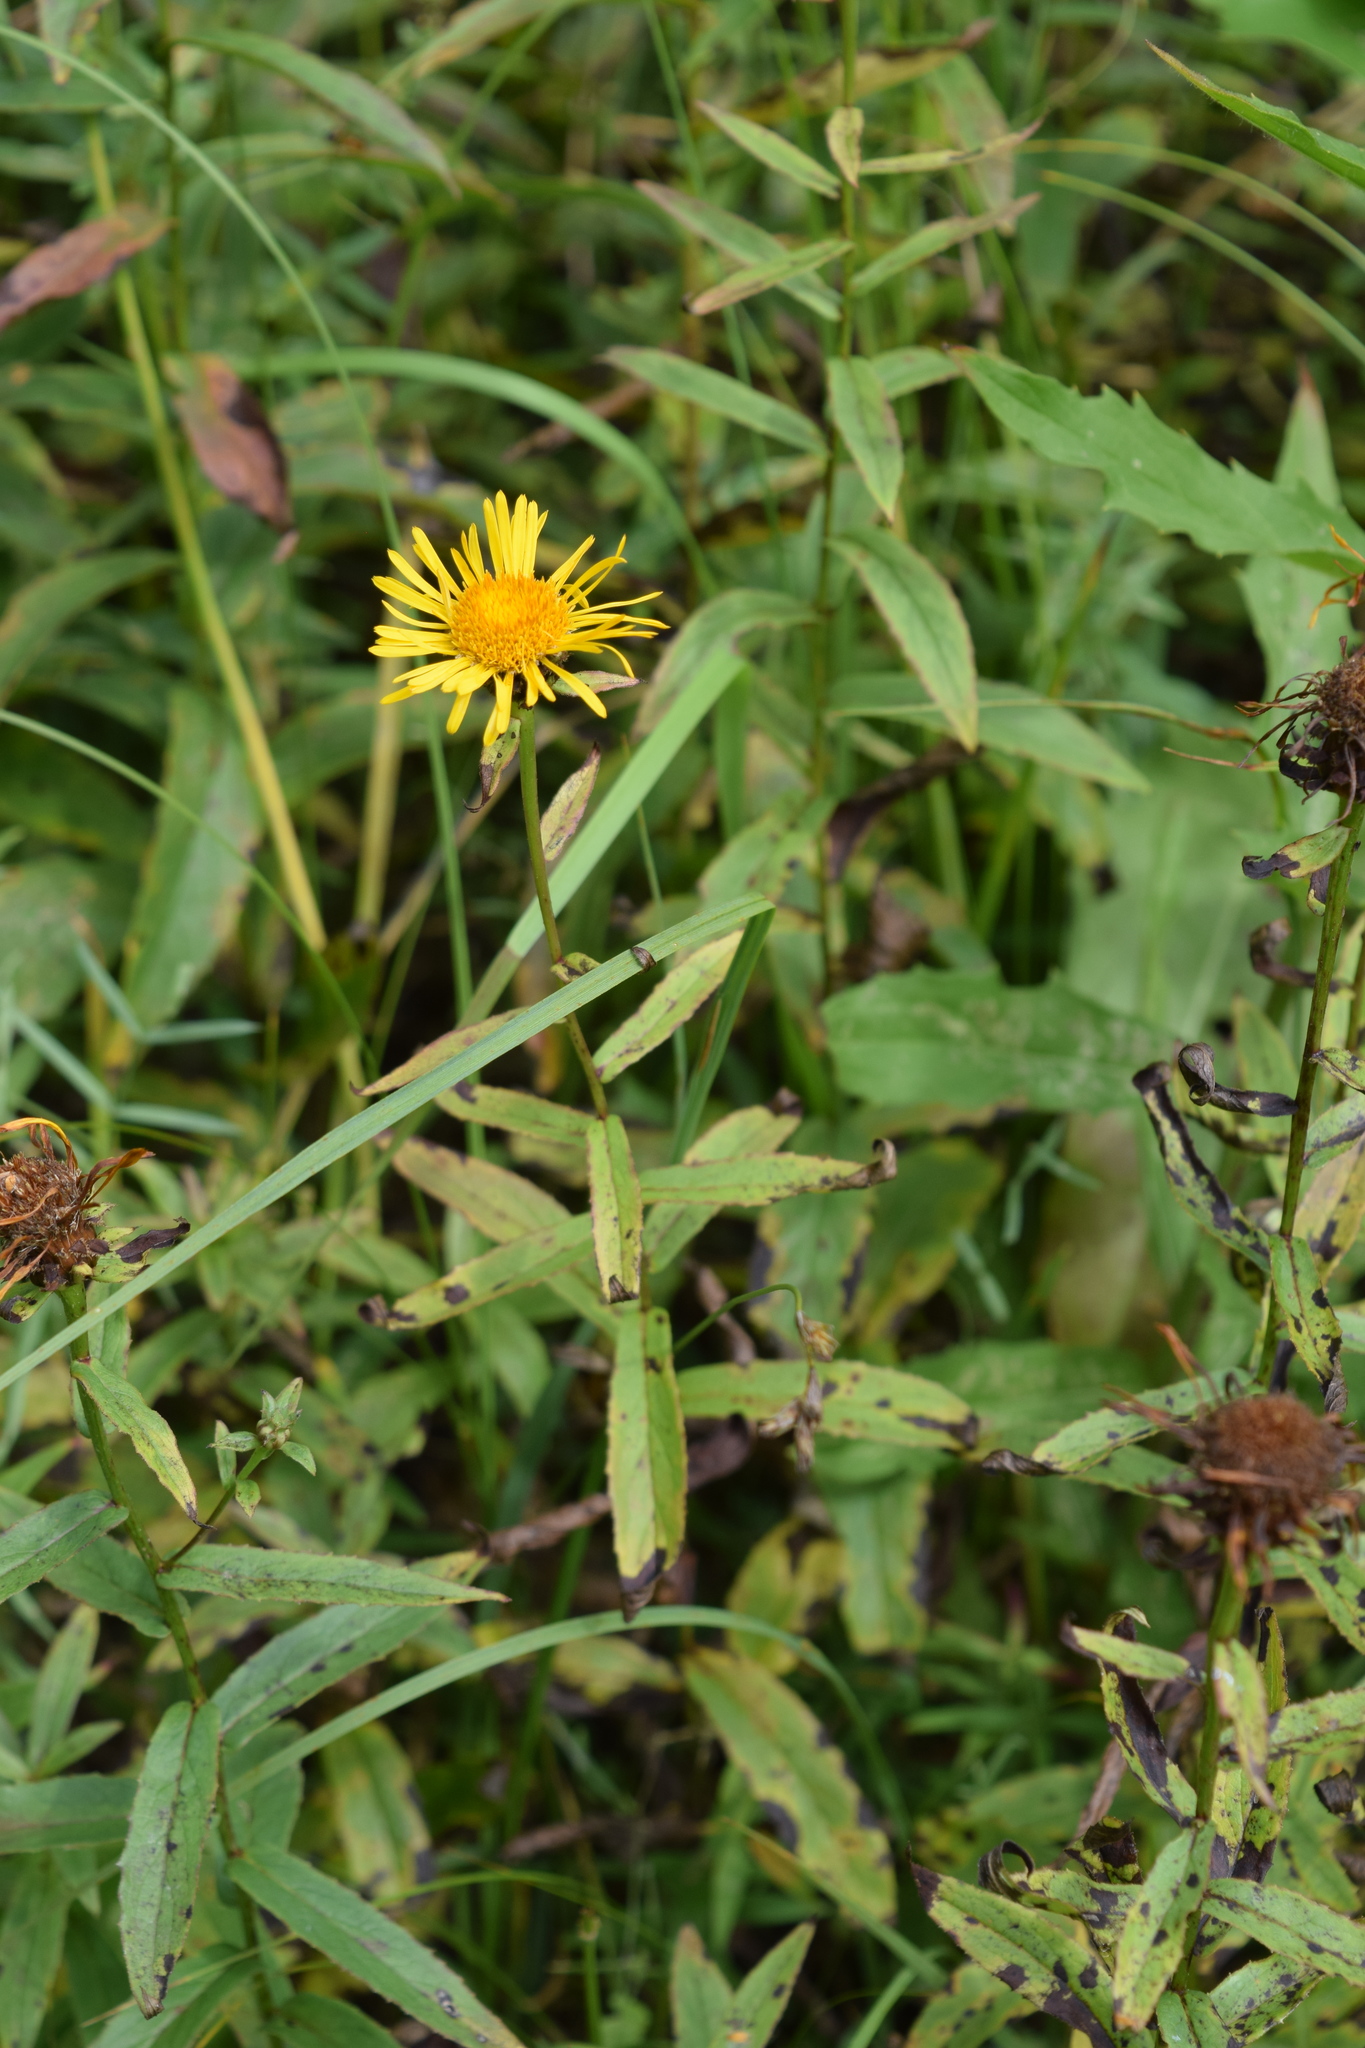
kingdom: Plantae
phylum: Tracheophyta
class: Magnoliopsida
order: Asterales
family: Asteraceae
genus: Pentanema
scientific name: Pentanema salicinum
